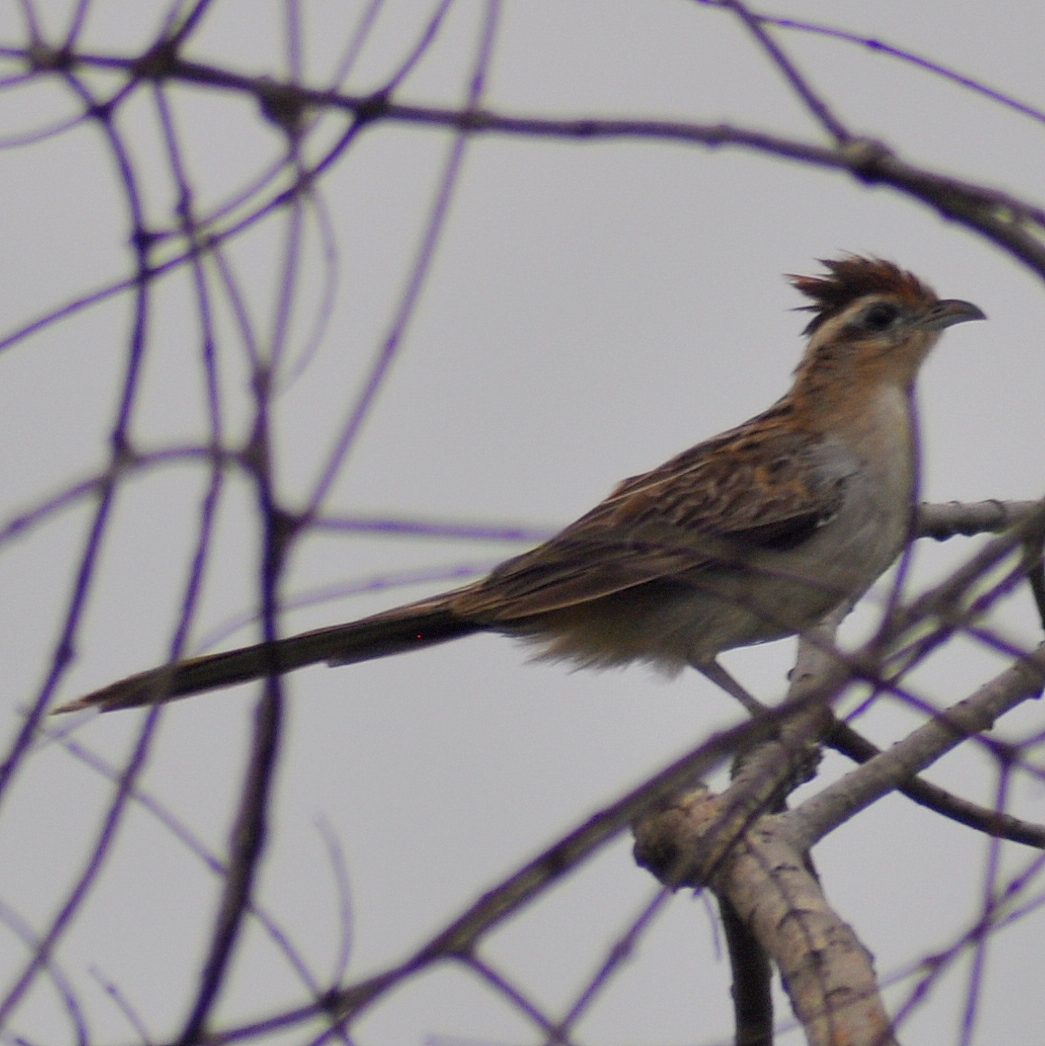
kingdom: Animalia
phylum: Chordata
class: Aves
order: Cuculiformes
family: Cuculidae
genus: Tapera
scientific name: Tapera naevia
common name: Striped cuckoo
